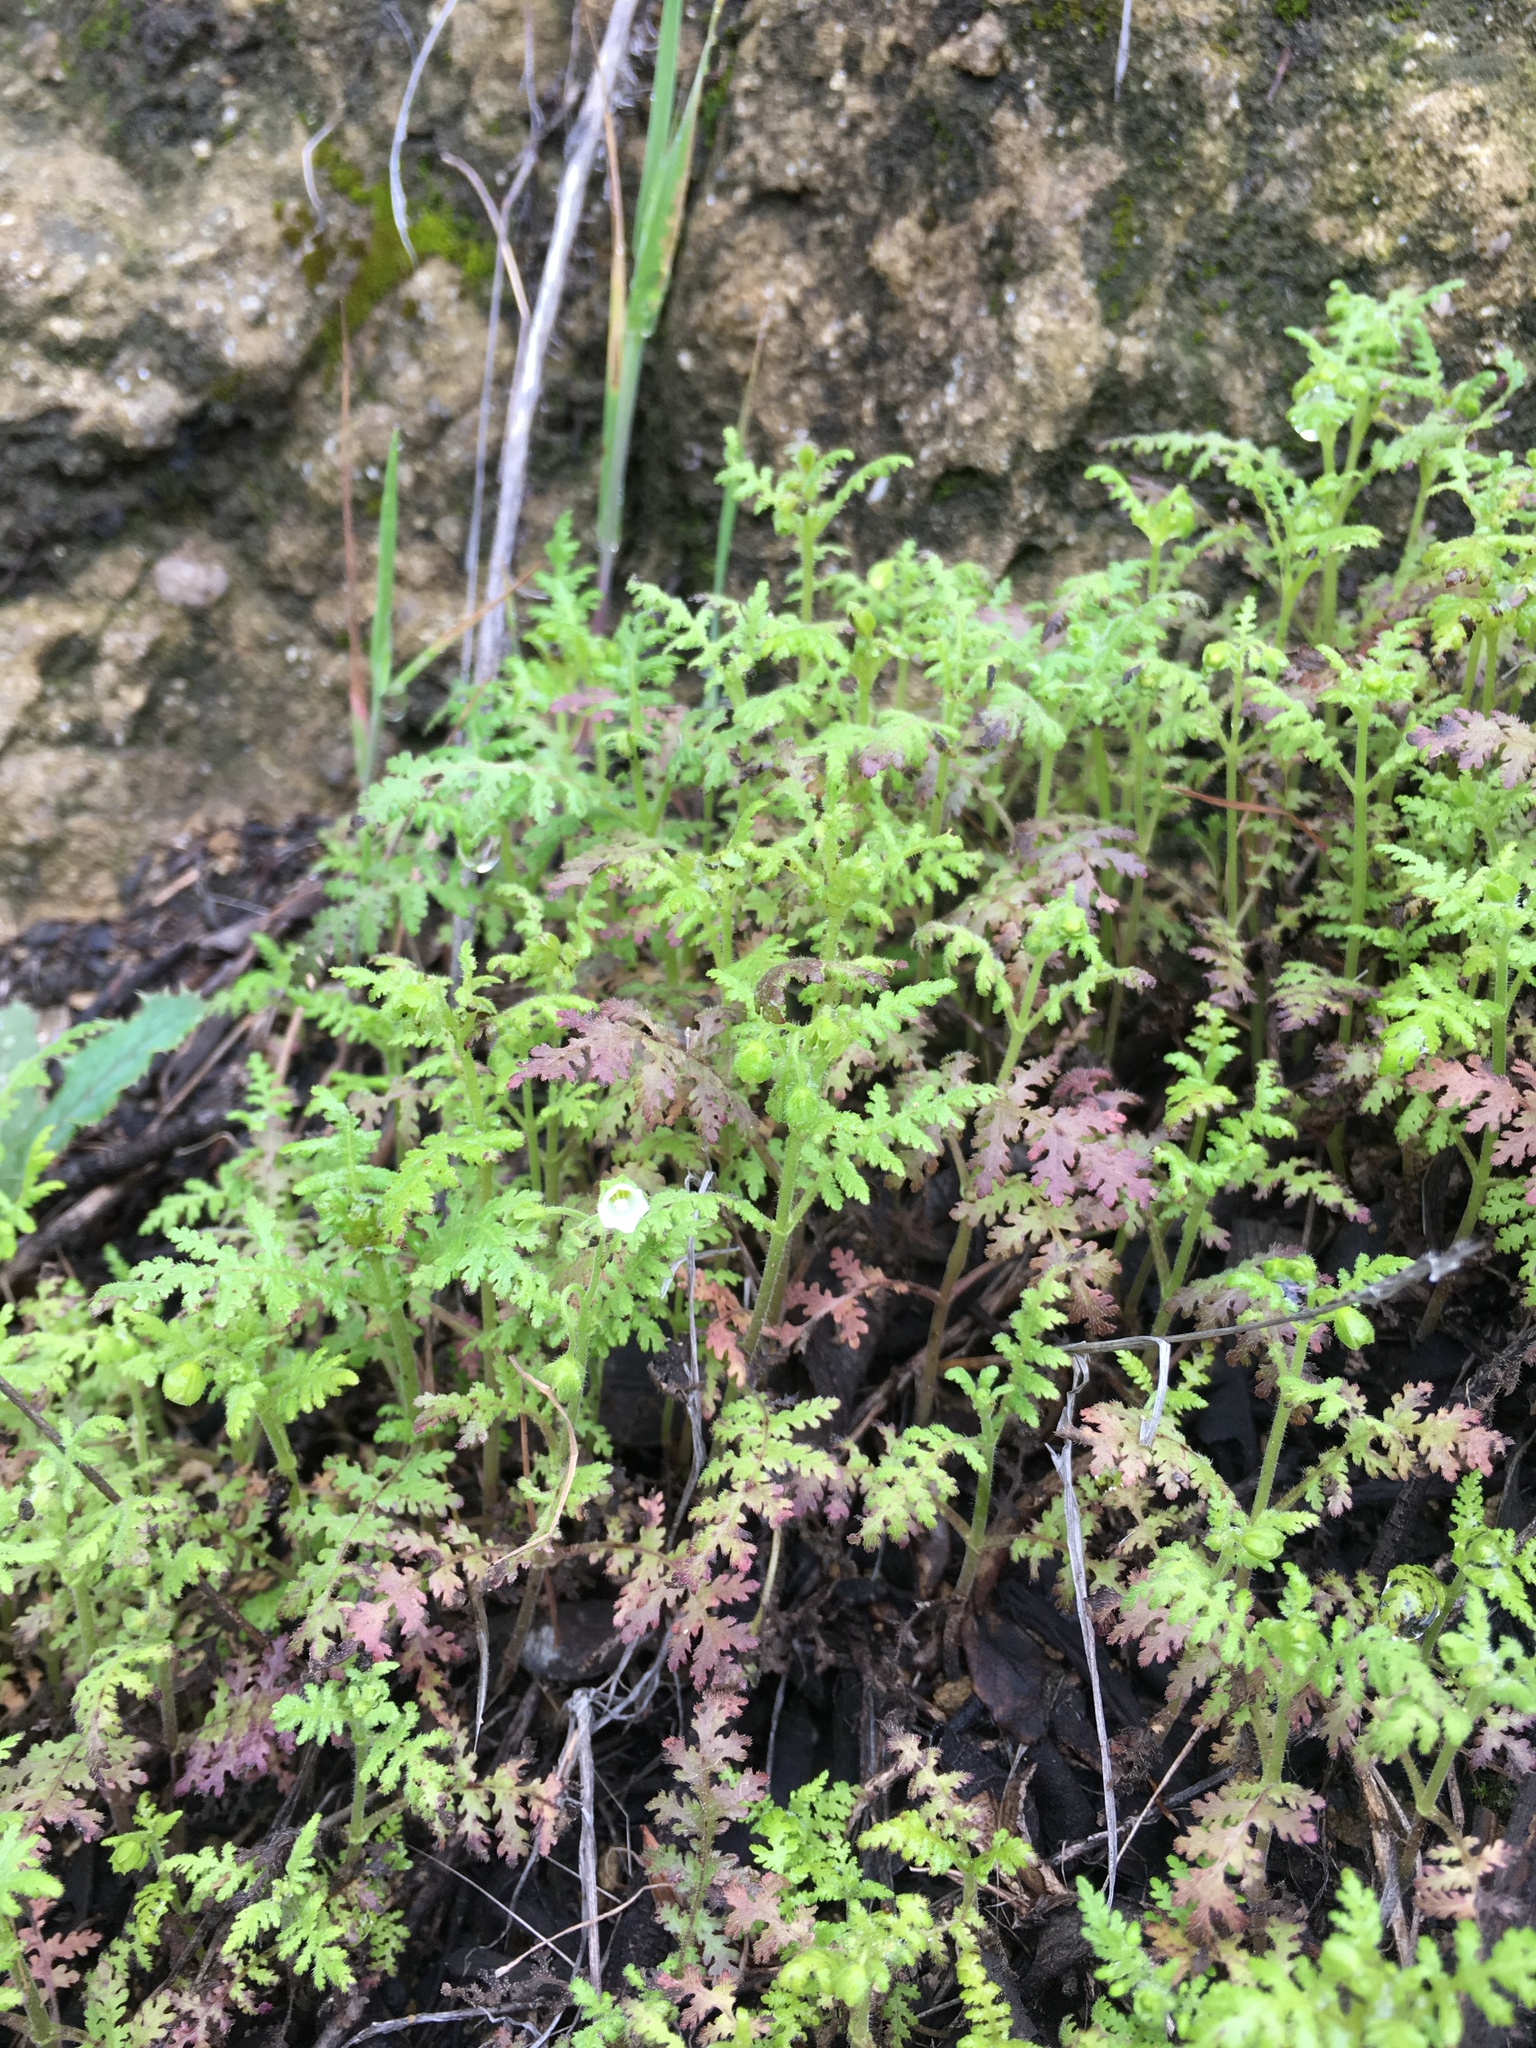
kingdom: Plantae
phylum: Tracheophyta
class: Magnoliopsida
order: Boraginales
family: Hydrophyllaceae
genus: Eucrypta
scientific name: Eucrypta chrysanthemifolia
